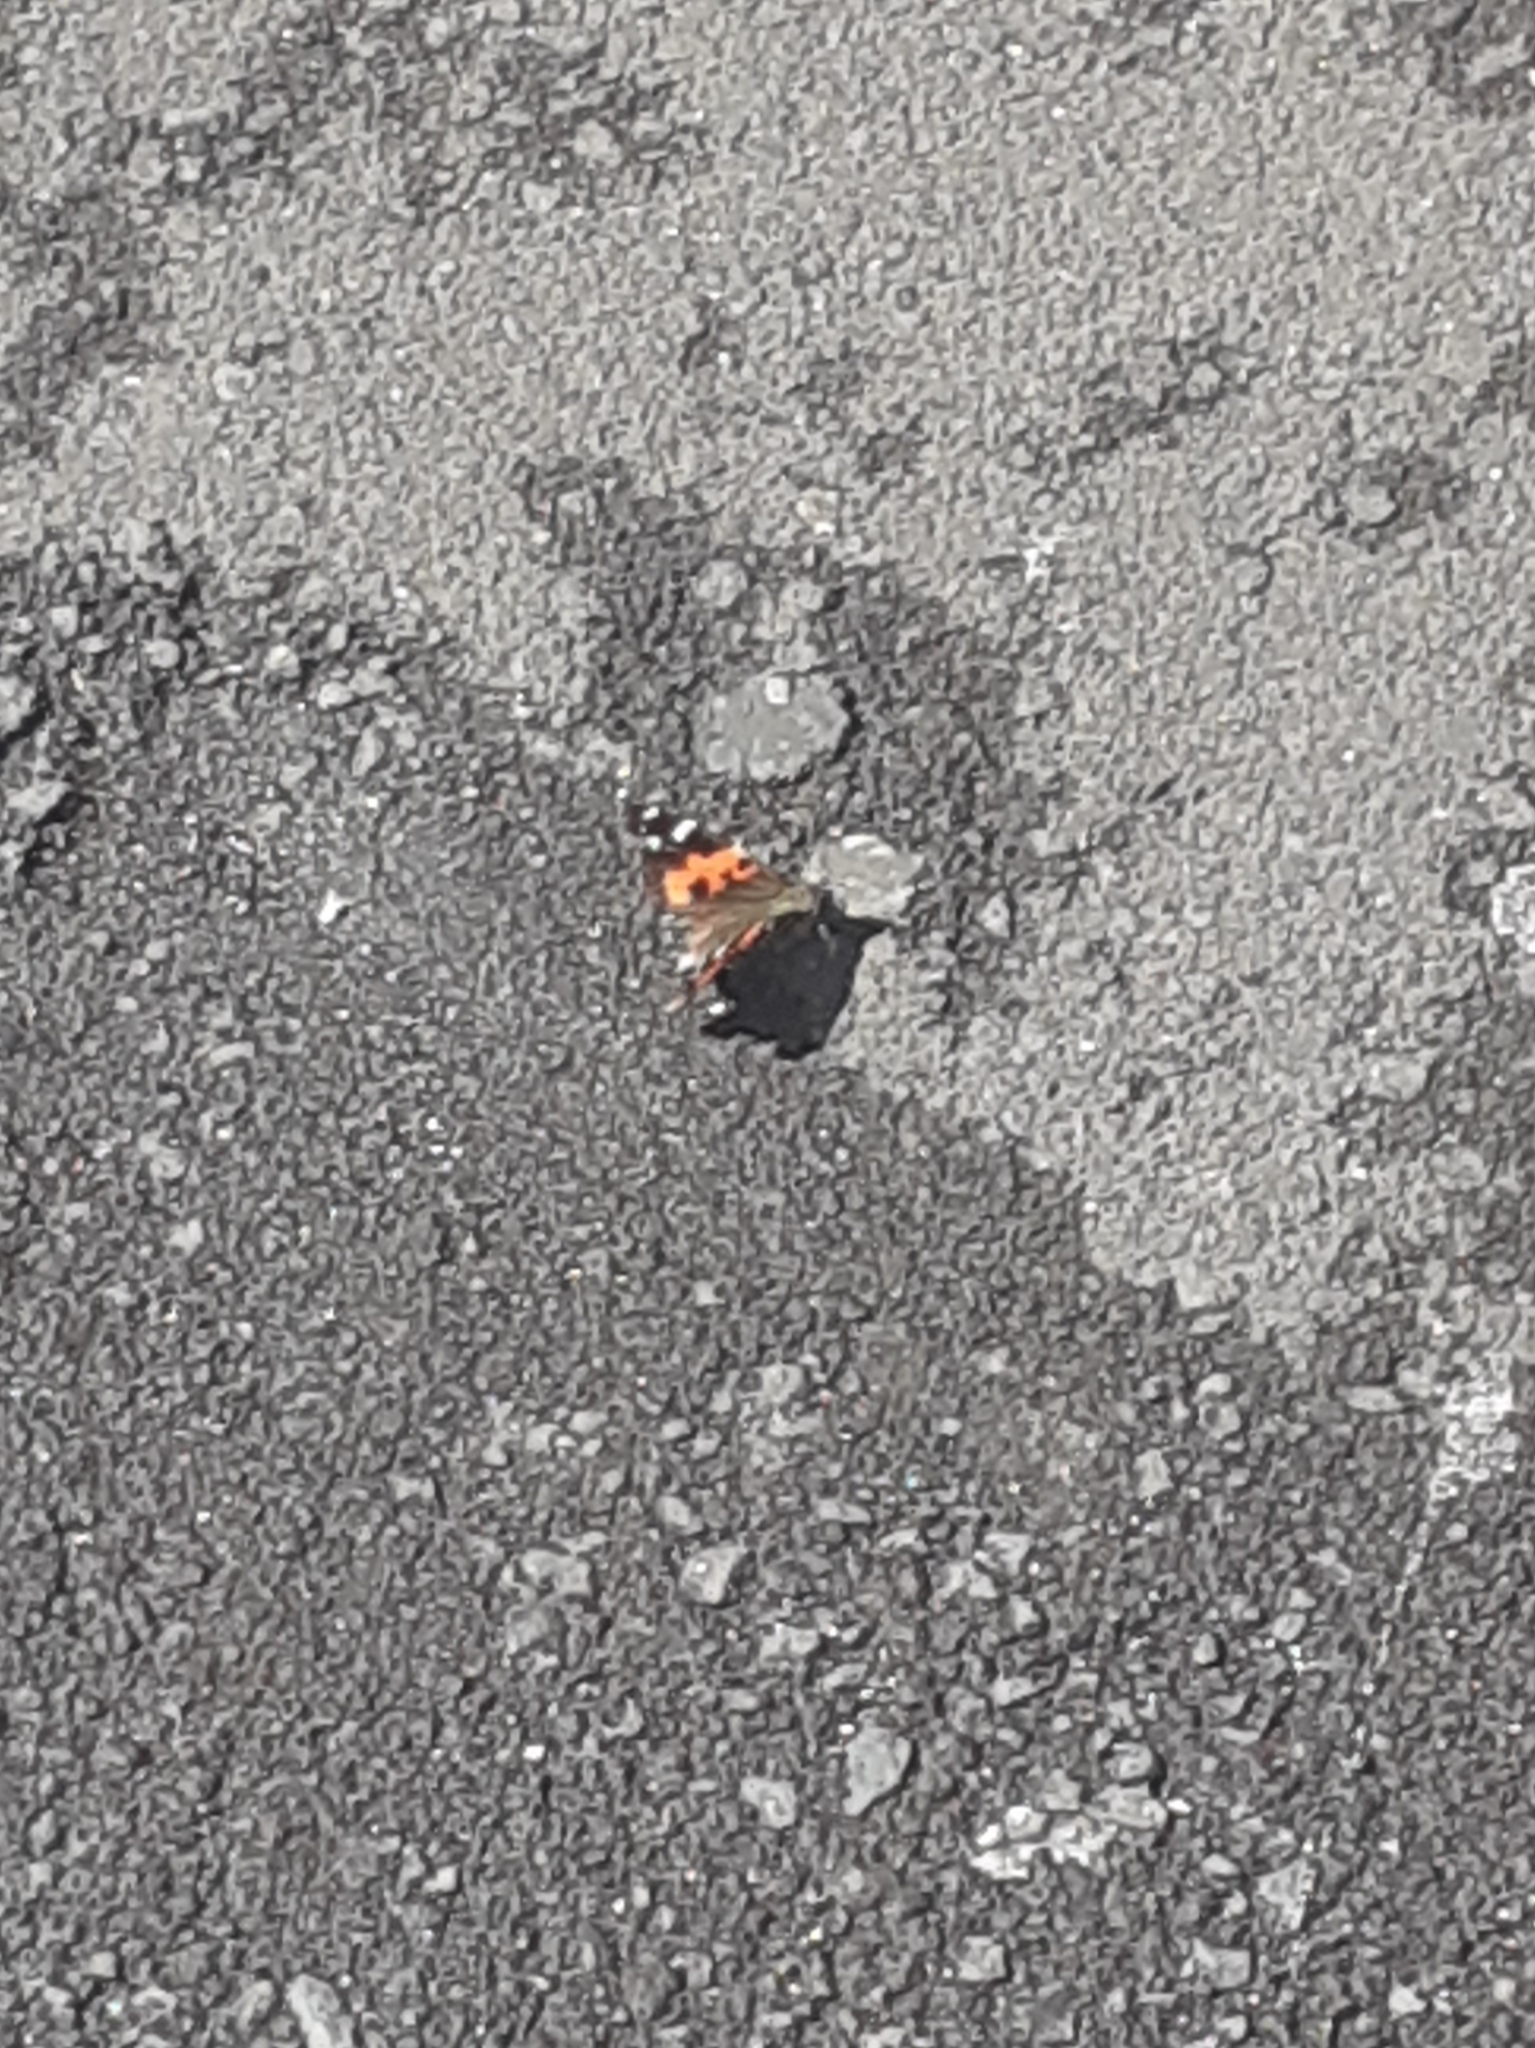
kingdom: Animalia
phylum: Arthropoda
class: Insecta
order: Lepidoptera
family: Nymphalidae
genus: Vanessa
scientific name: Vanessa vulcania
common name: Canary red admiral
